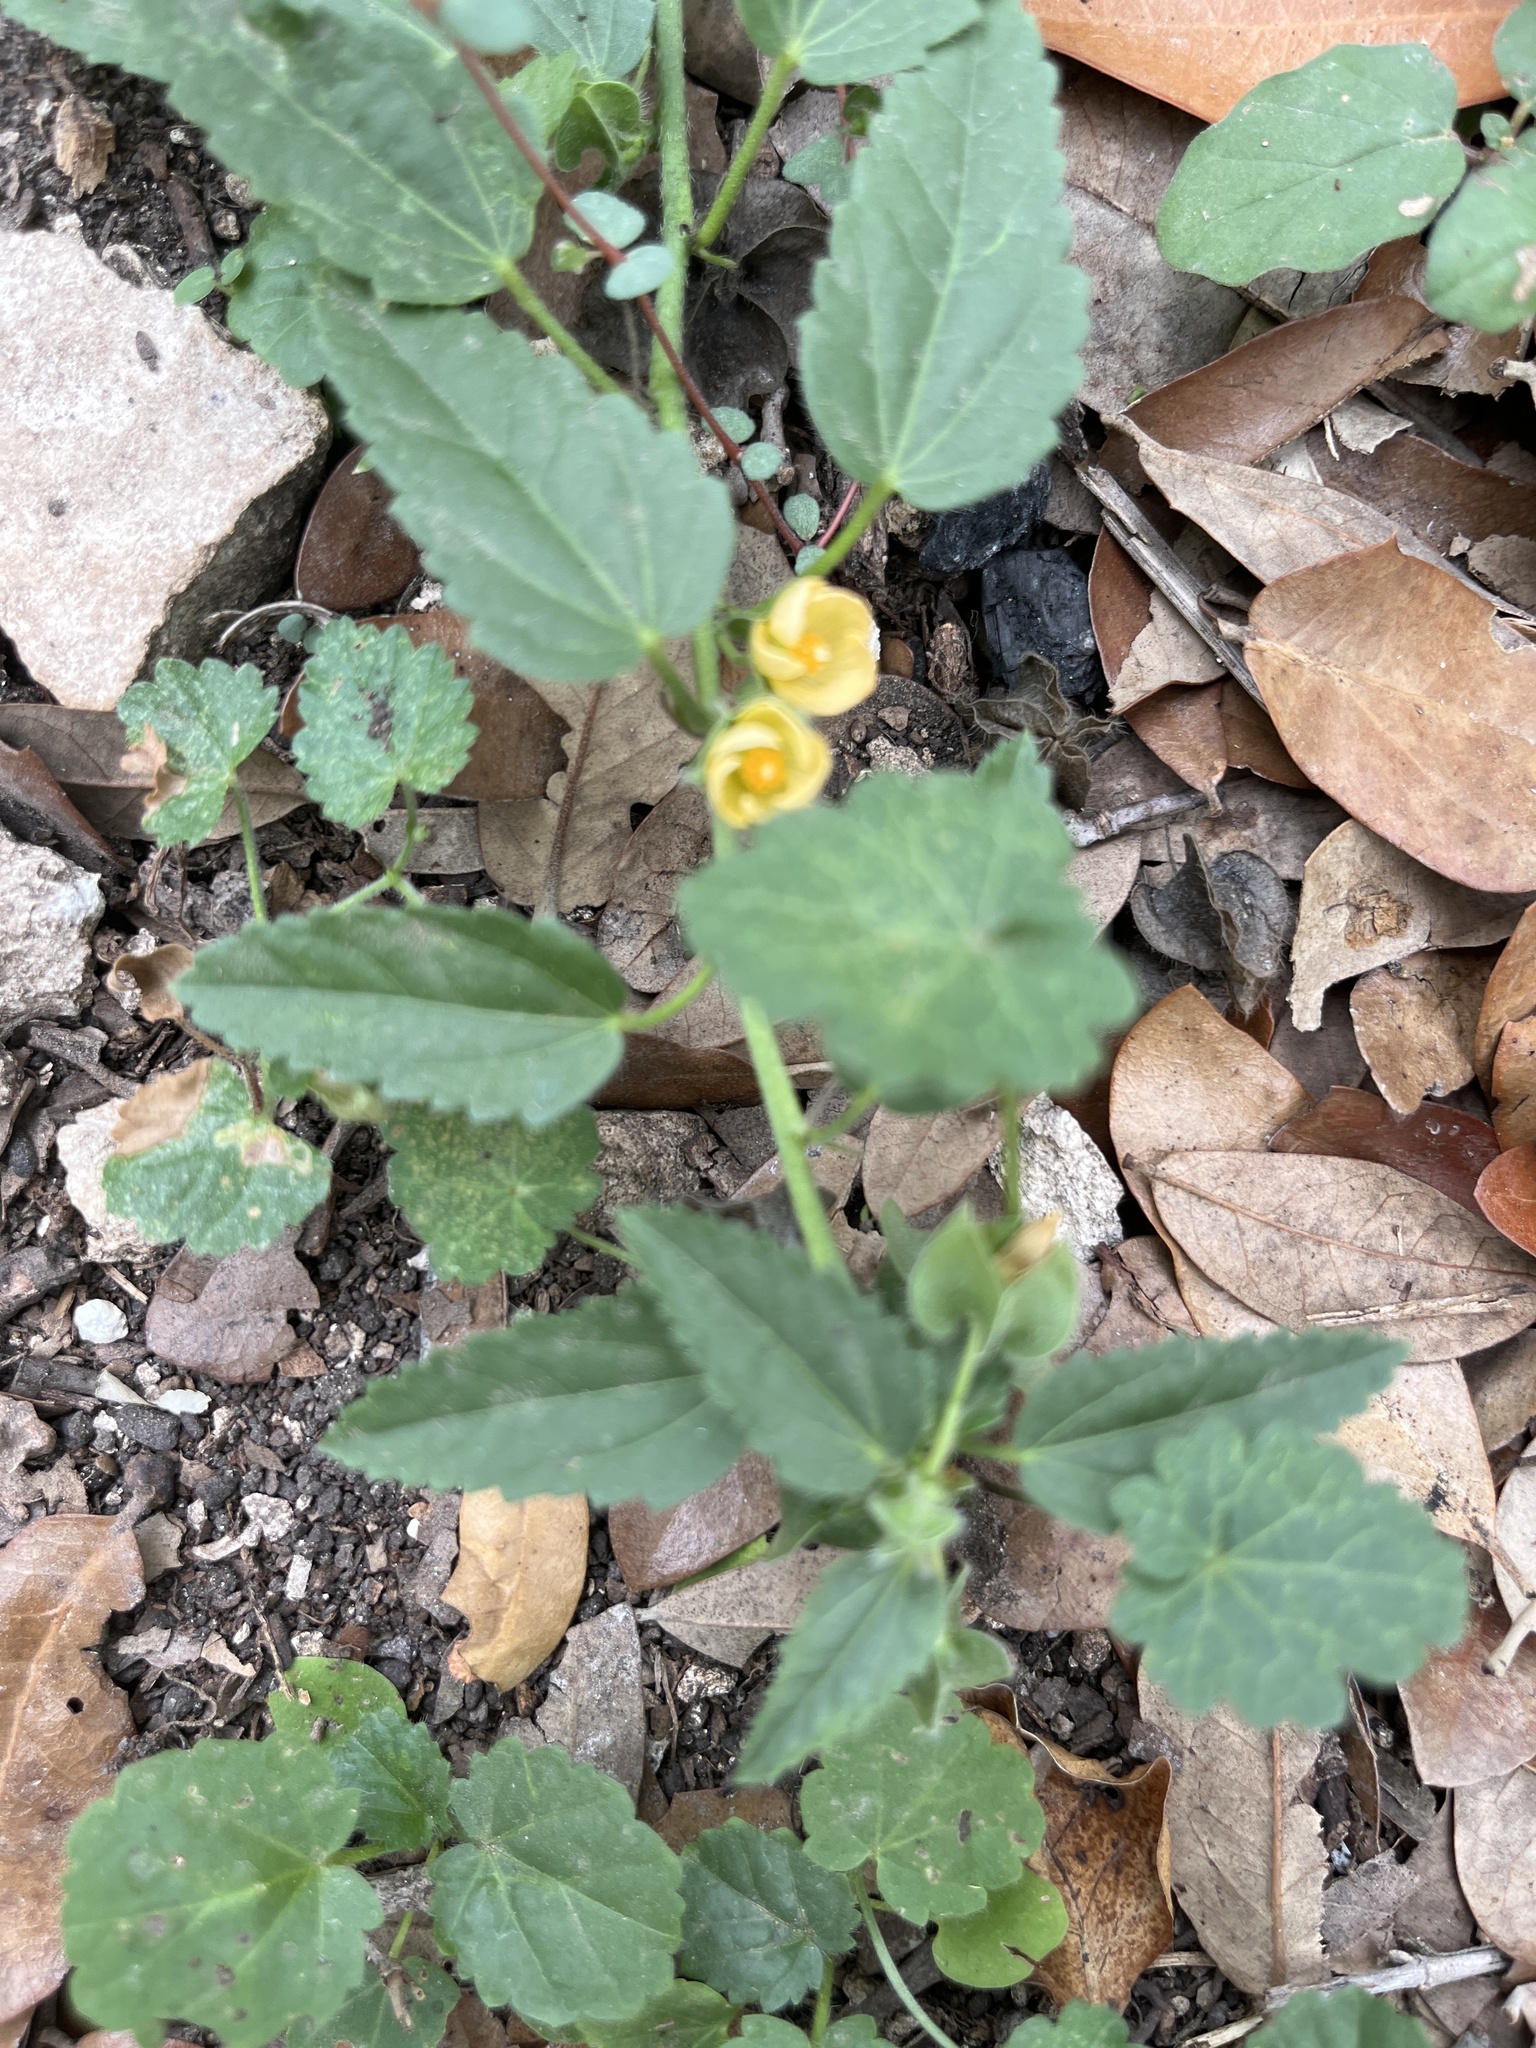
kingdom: Plantae
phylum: Tracheophyta
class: Magnoliopsida
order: Malvales
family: Malvaceae
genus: Rhynchosida
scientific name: Rhynchosida physocalyx
